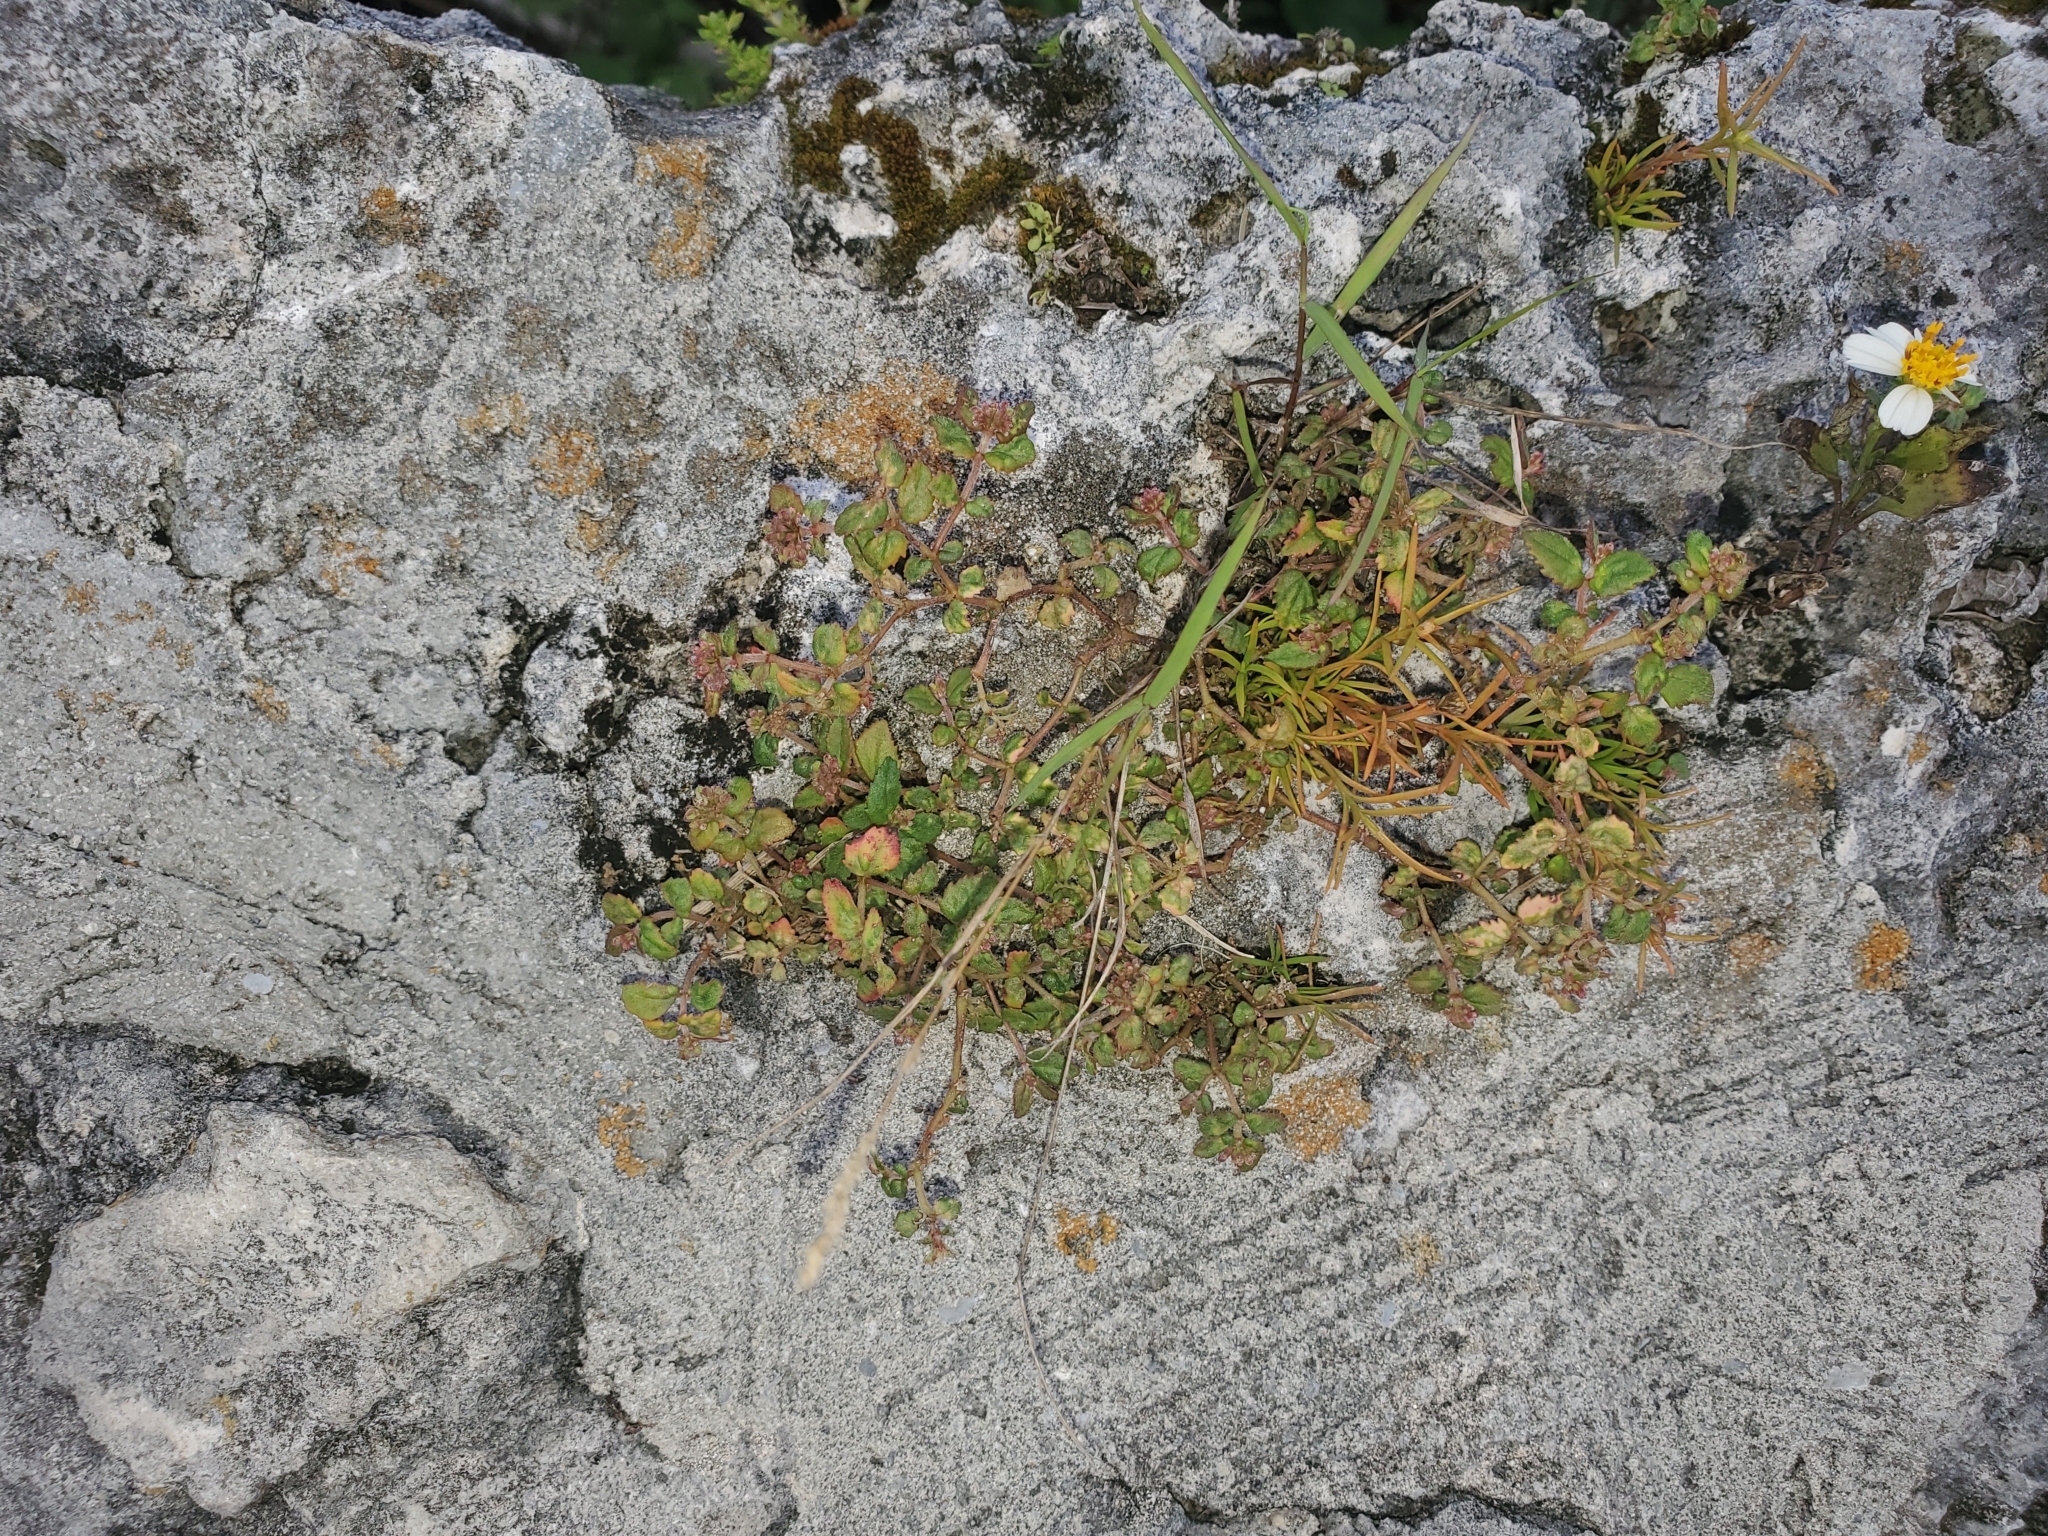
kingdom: Plantae
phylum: Tracheophyta
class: Magnoliopsida
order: Malpighiales
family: Euphorbiaceae
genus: Euphorbia
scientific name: Euphorbia ophthalmica
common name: Florida hammock sandmat
